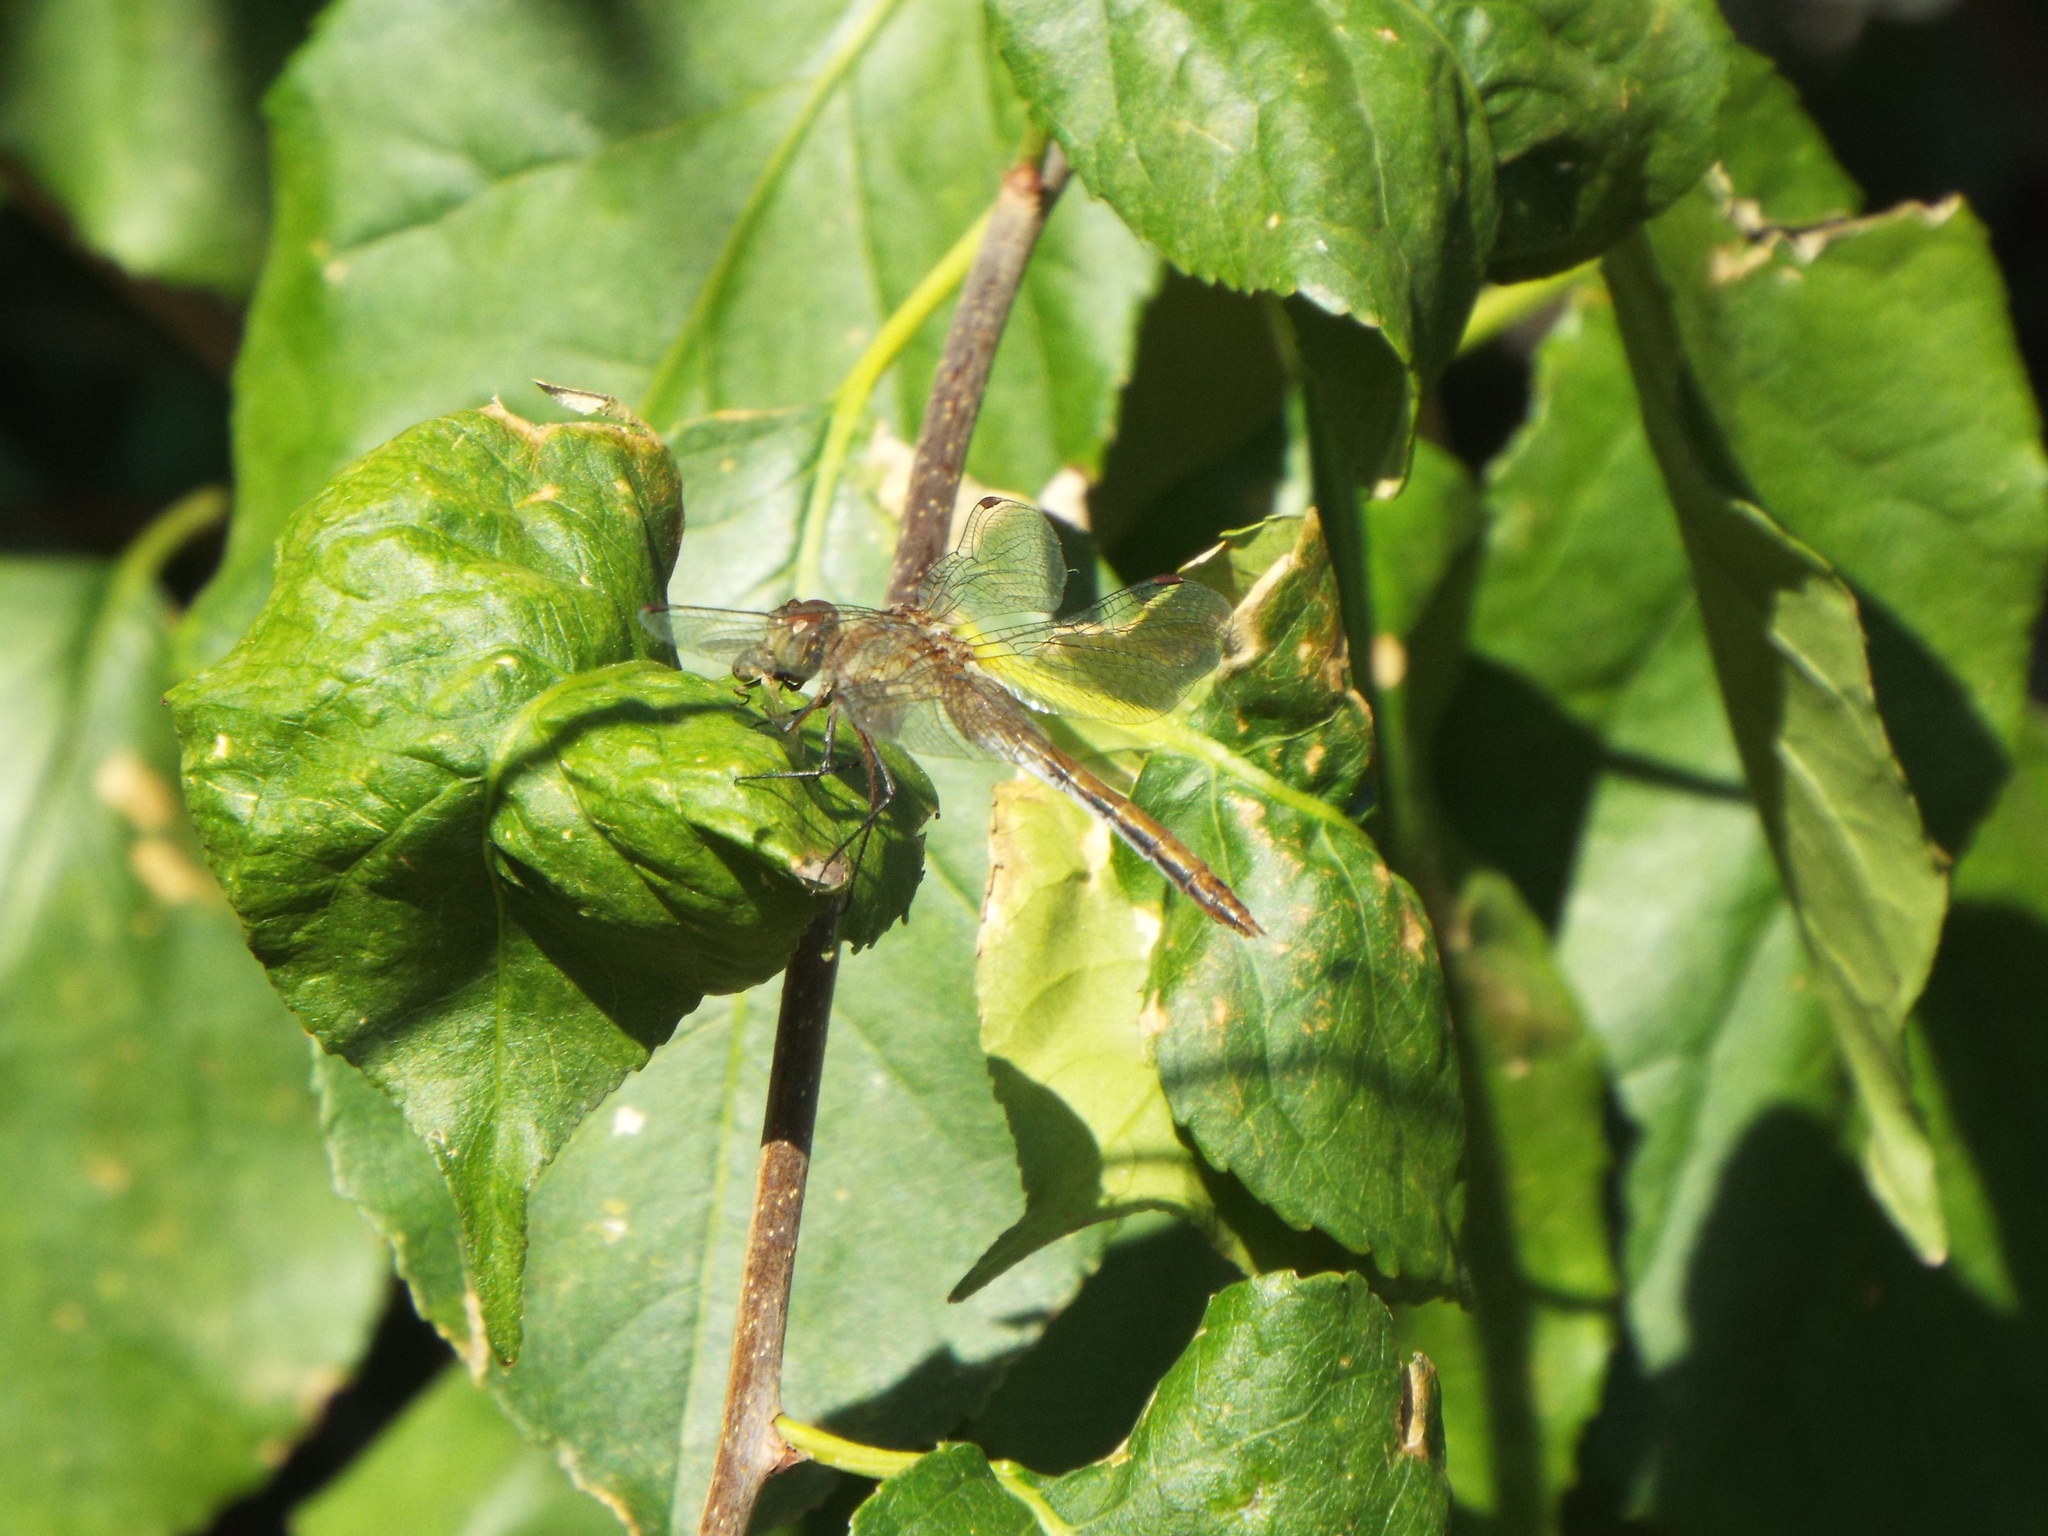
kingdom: Animalia
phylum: Arthropoda
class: Insecta
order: Odonata
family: Libellulidae
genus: Sympetrum
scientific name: Sympetrum
